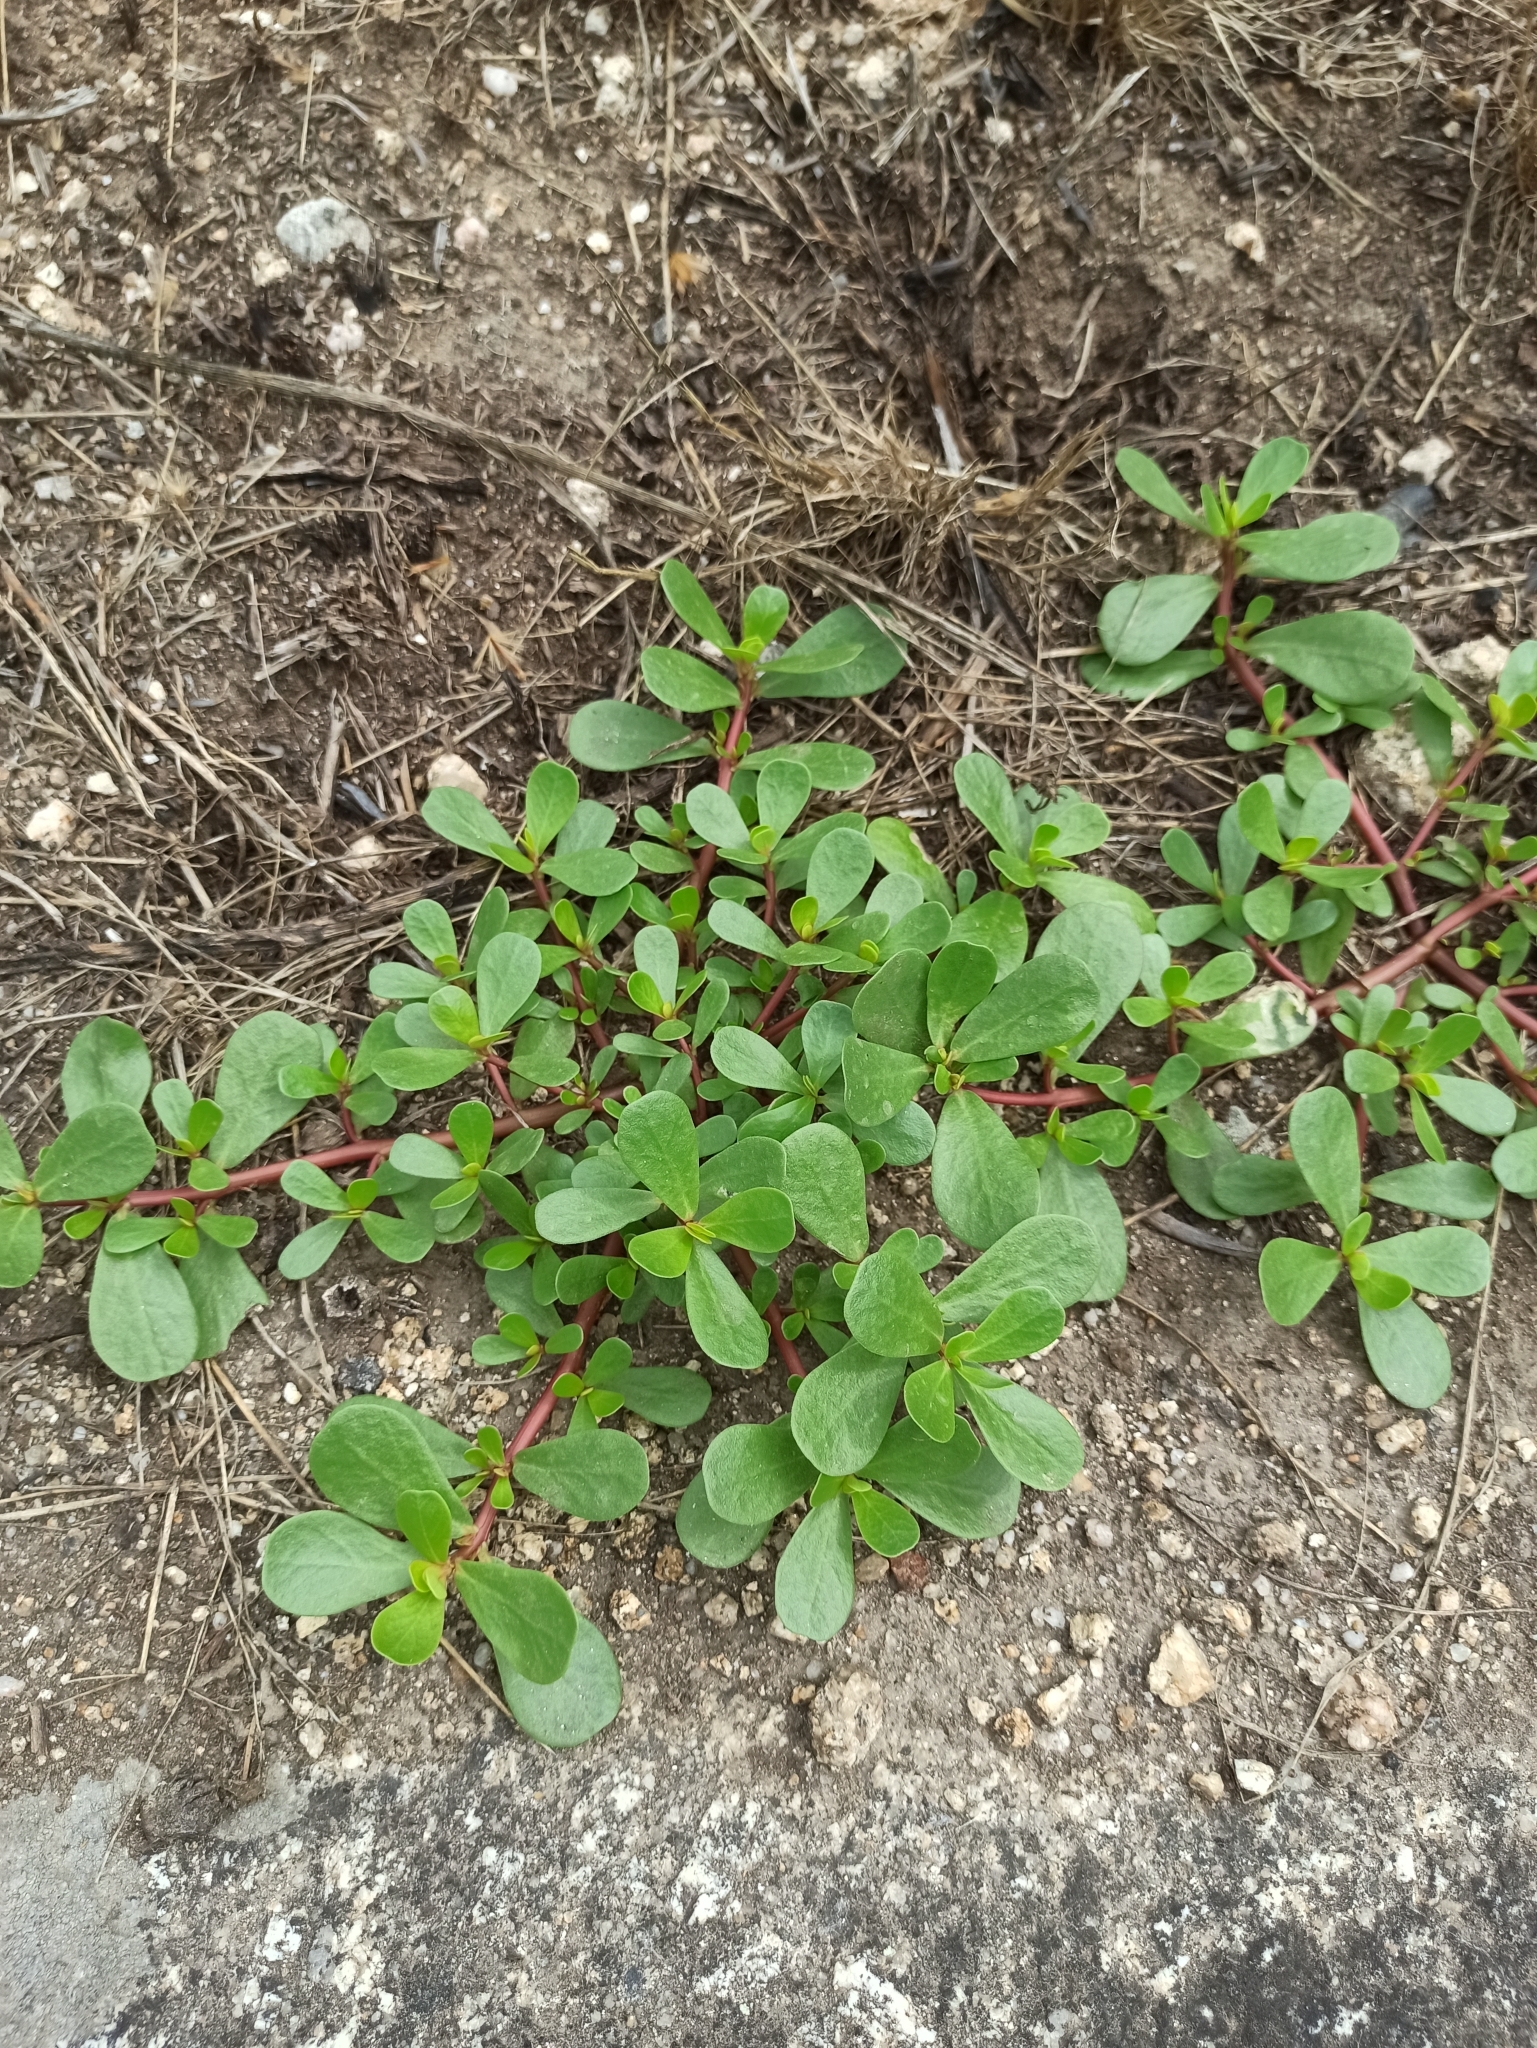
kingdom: Plantae
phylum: Tracheophyta
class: Magnoliopsida
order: Caryophyllales
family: Portulacaceae
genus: Portulaca
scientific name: Portulaca oleracea
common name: Common purslane
